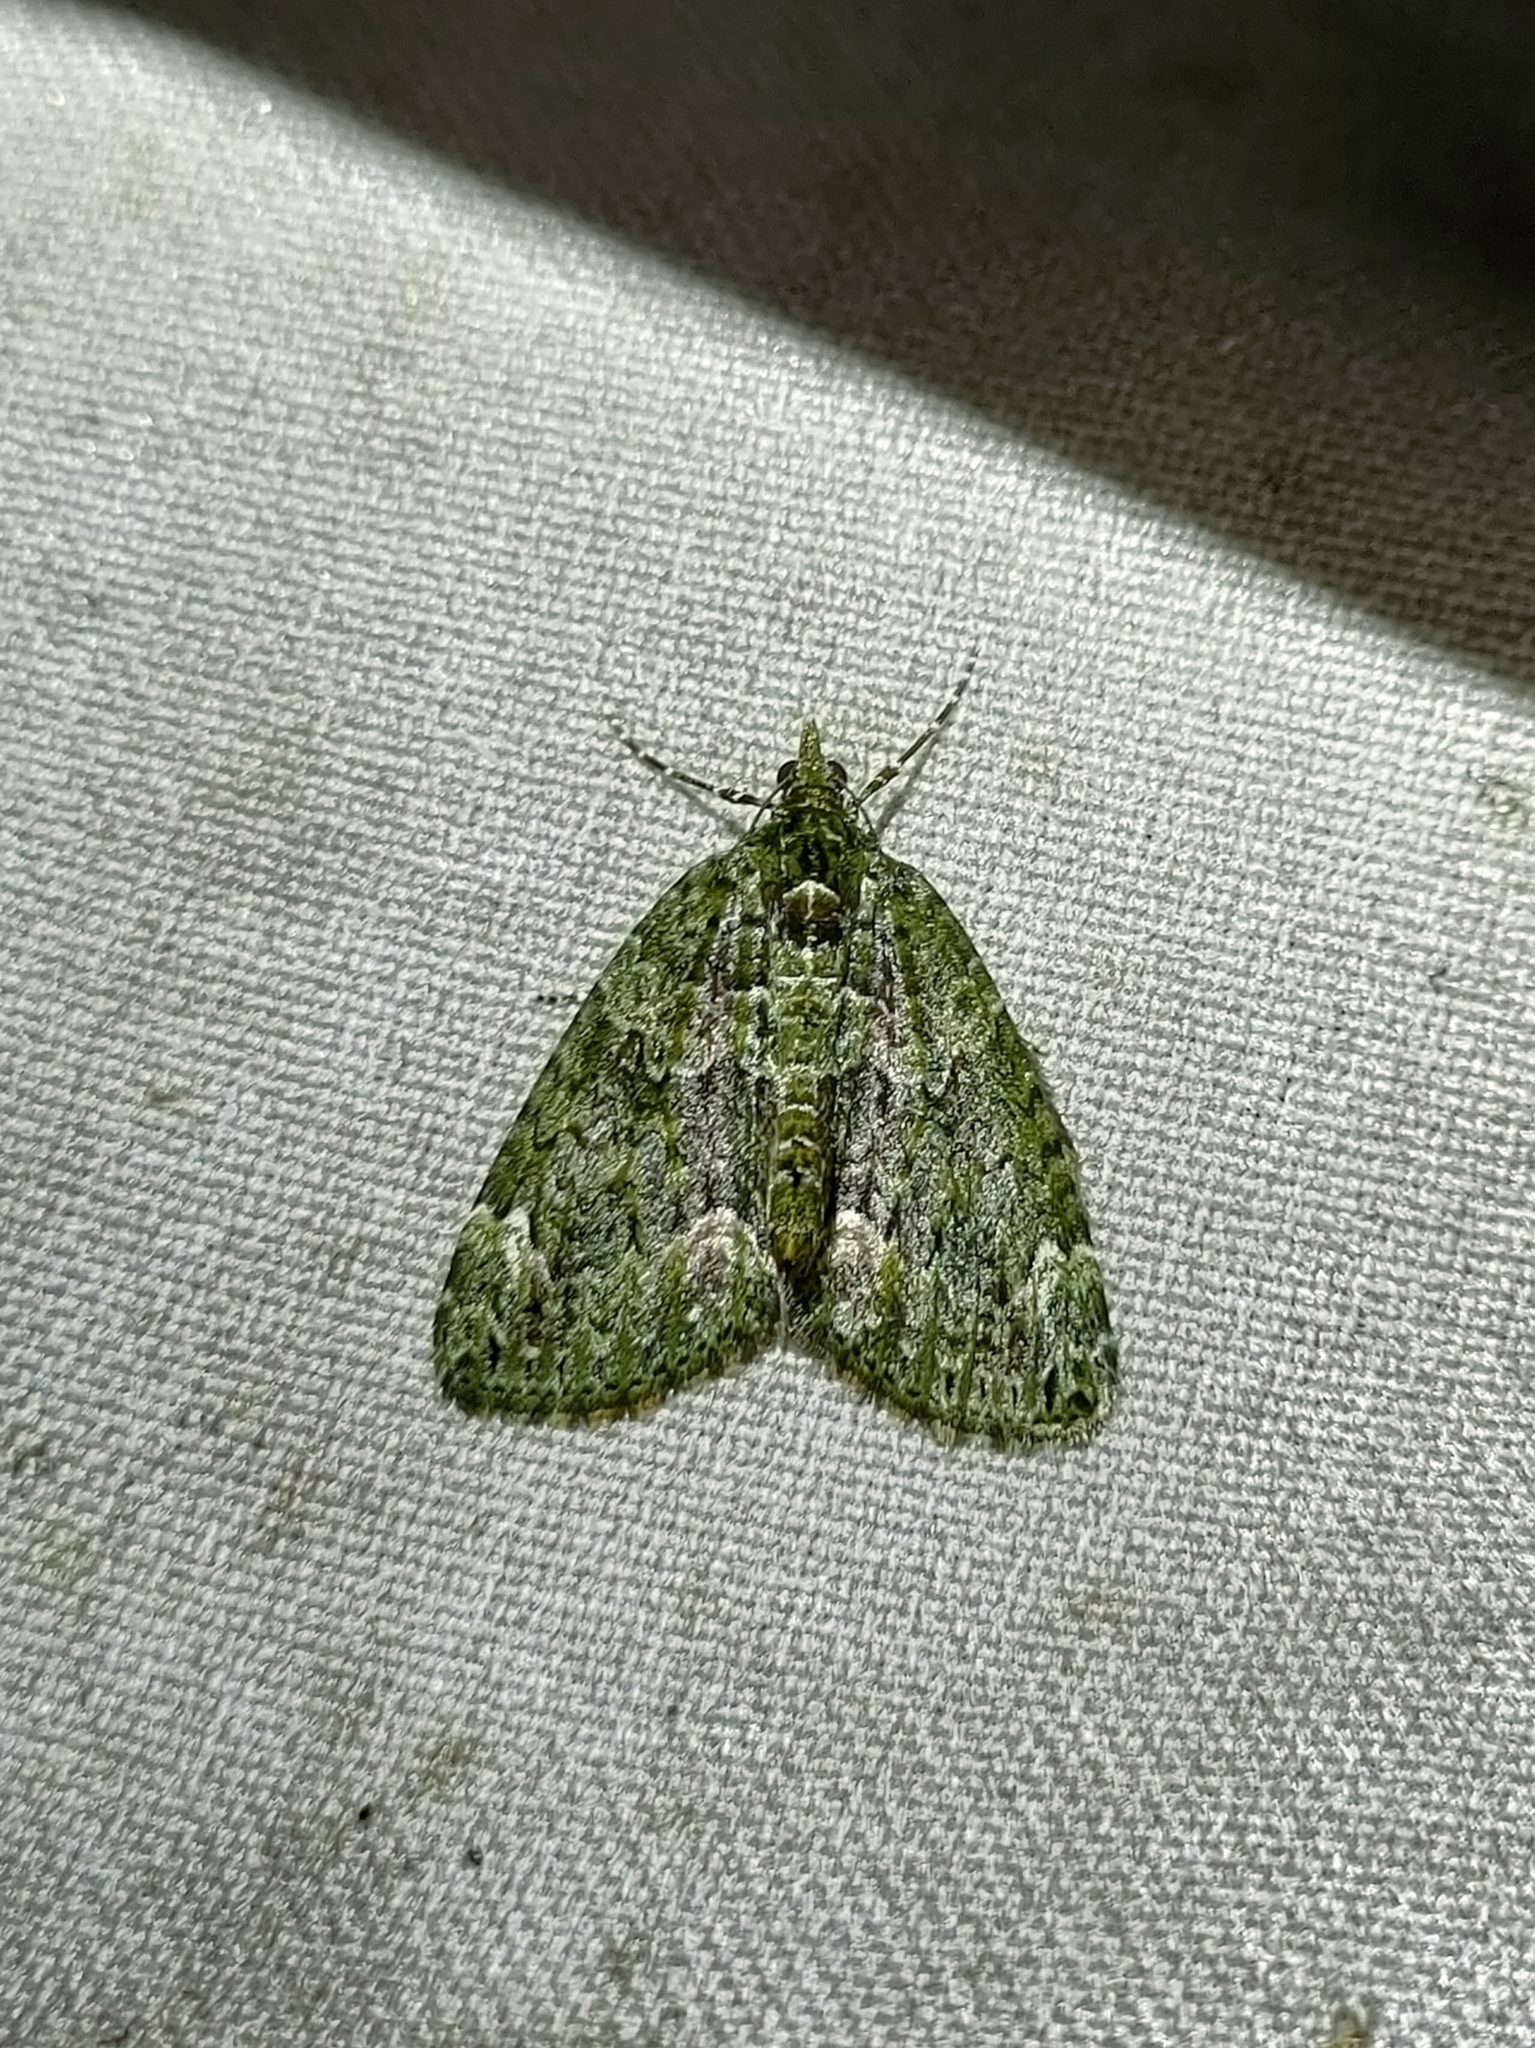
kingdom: Animalia
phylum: Arthropoda
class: Insecta
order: Lepidoptera
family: Geometridae
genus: Chloroclysta
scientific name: Chloroclysta siterata
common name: Red-green carpet
